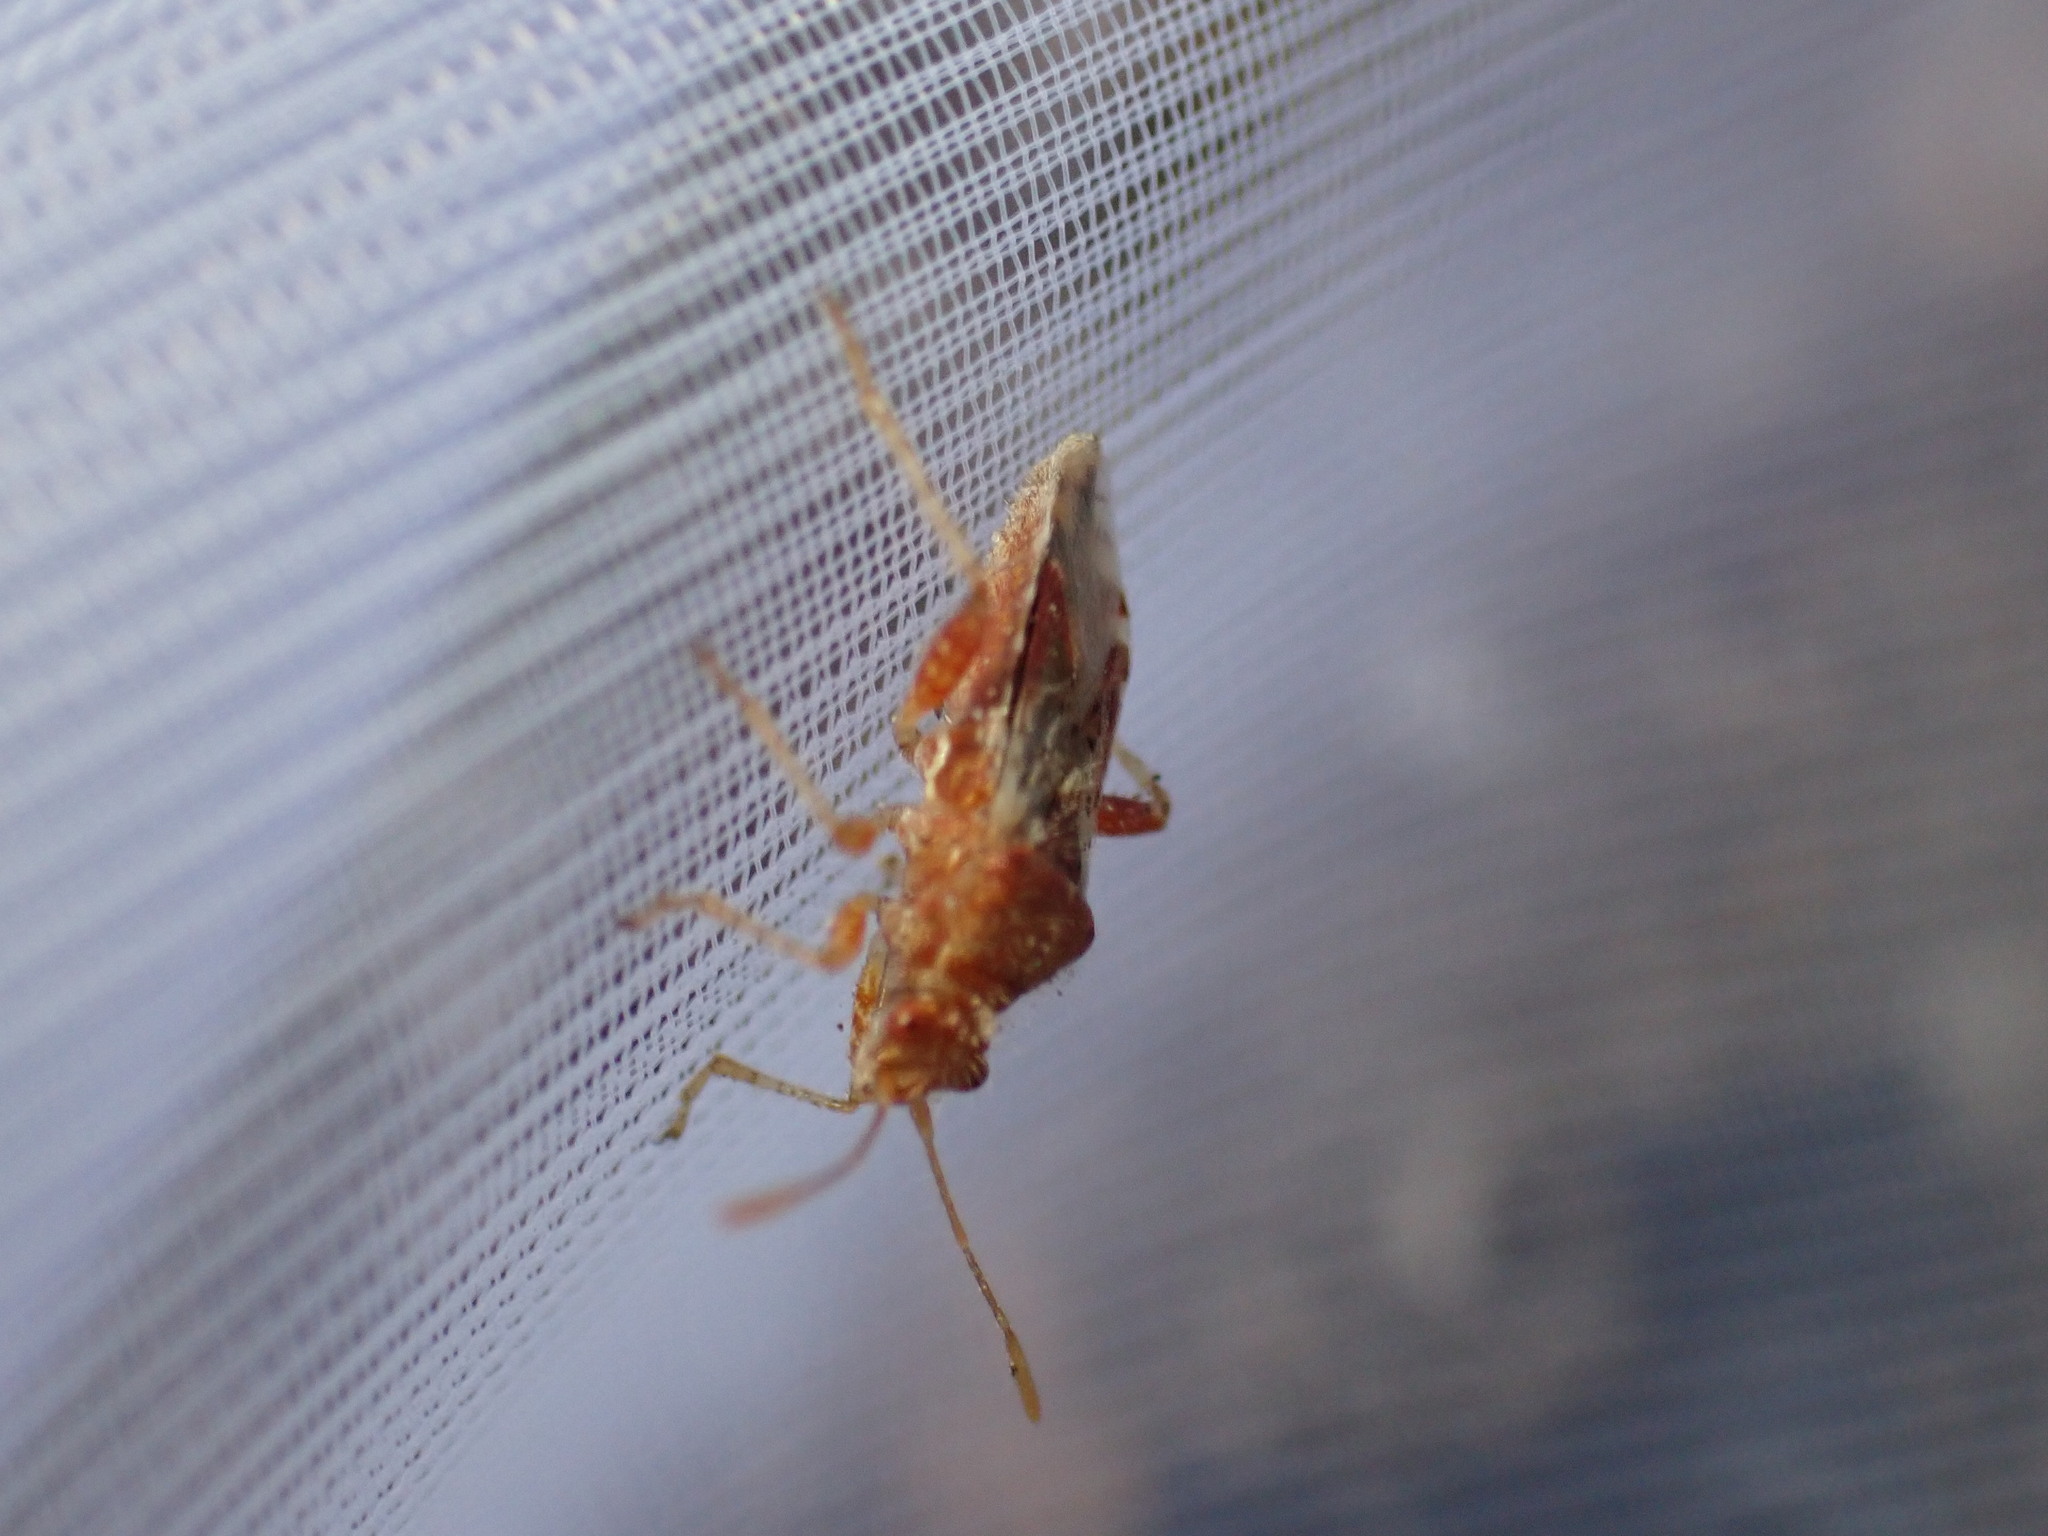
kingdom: Animalia
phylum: Arthropoda
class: Insecta
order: Hemiptera
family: Rhopalidae
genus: Rhopalus
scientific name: Rhopalus subrufus
